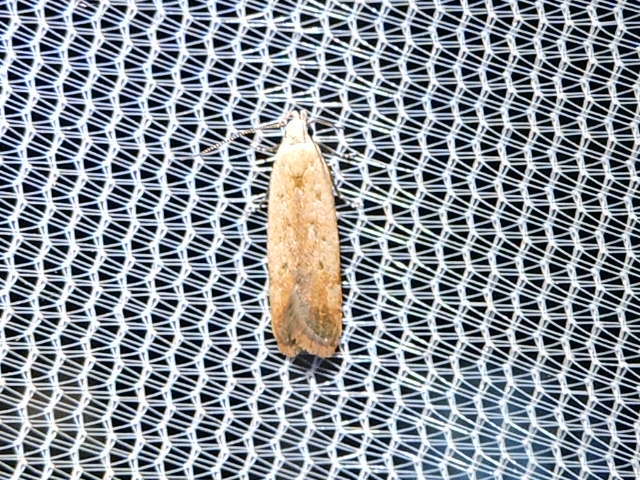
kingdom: Animalia
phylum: Arthropoda
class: Insecta
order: Lepidoptera
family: Gelechiidae
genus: Anacampsis
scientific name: Anacampsis fullonella
